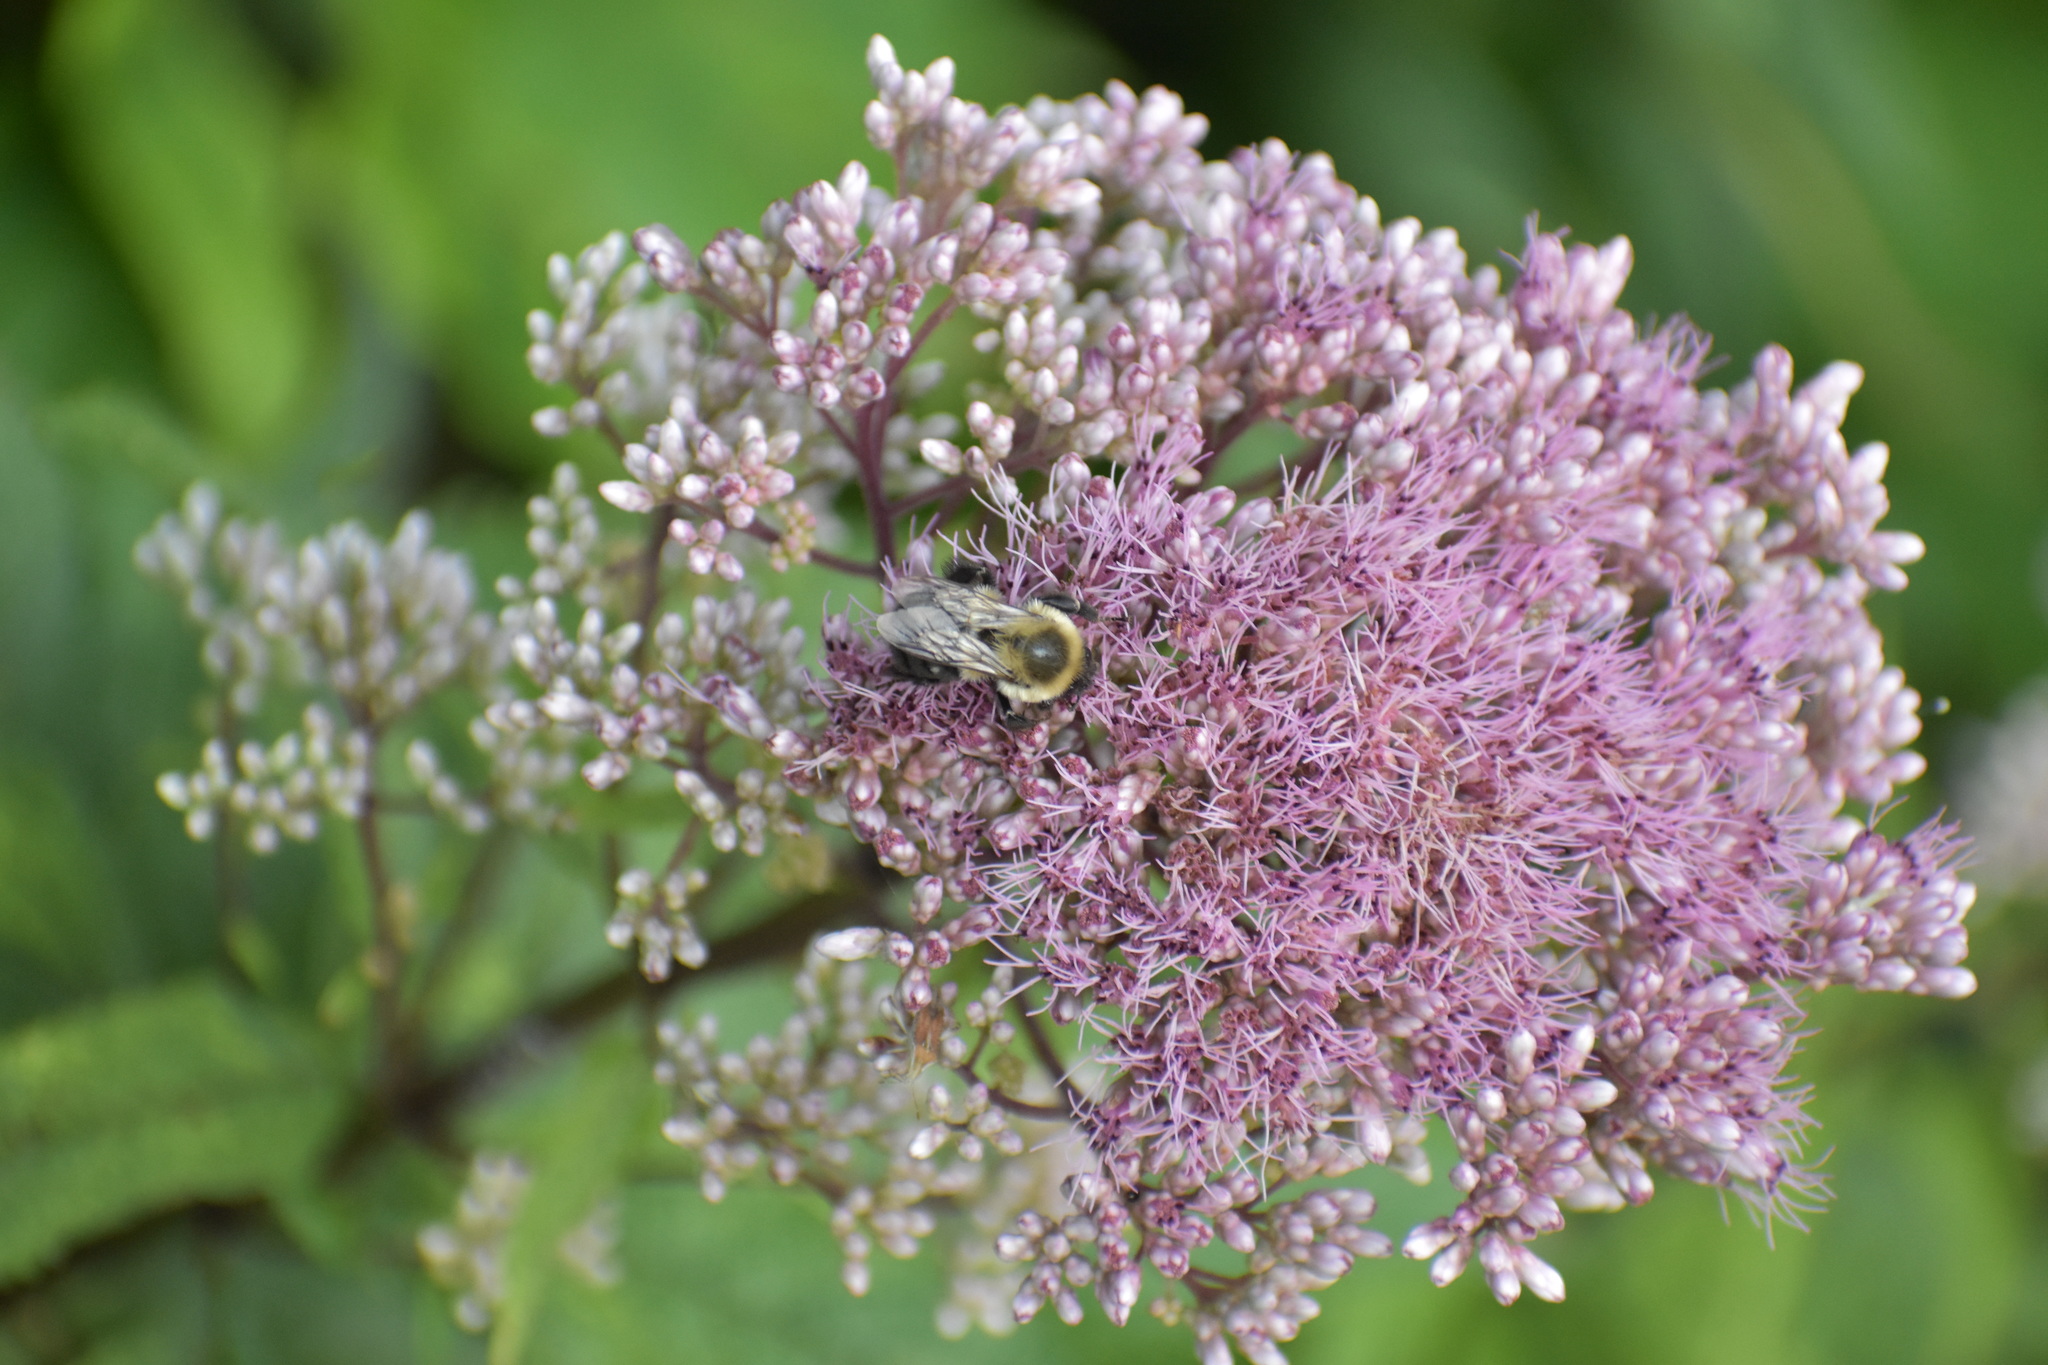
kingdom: Animalia
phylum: Arthropoda
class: Insecta
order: Hymenoptera
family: Apidae
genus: Bombus
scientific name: Bombus impatiens
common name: Common eastern bumble bee
